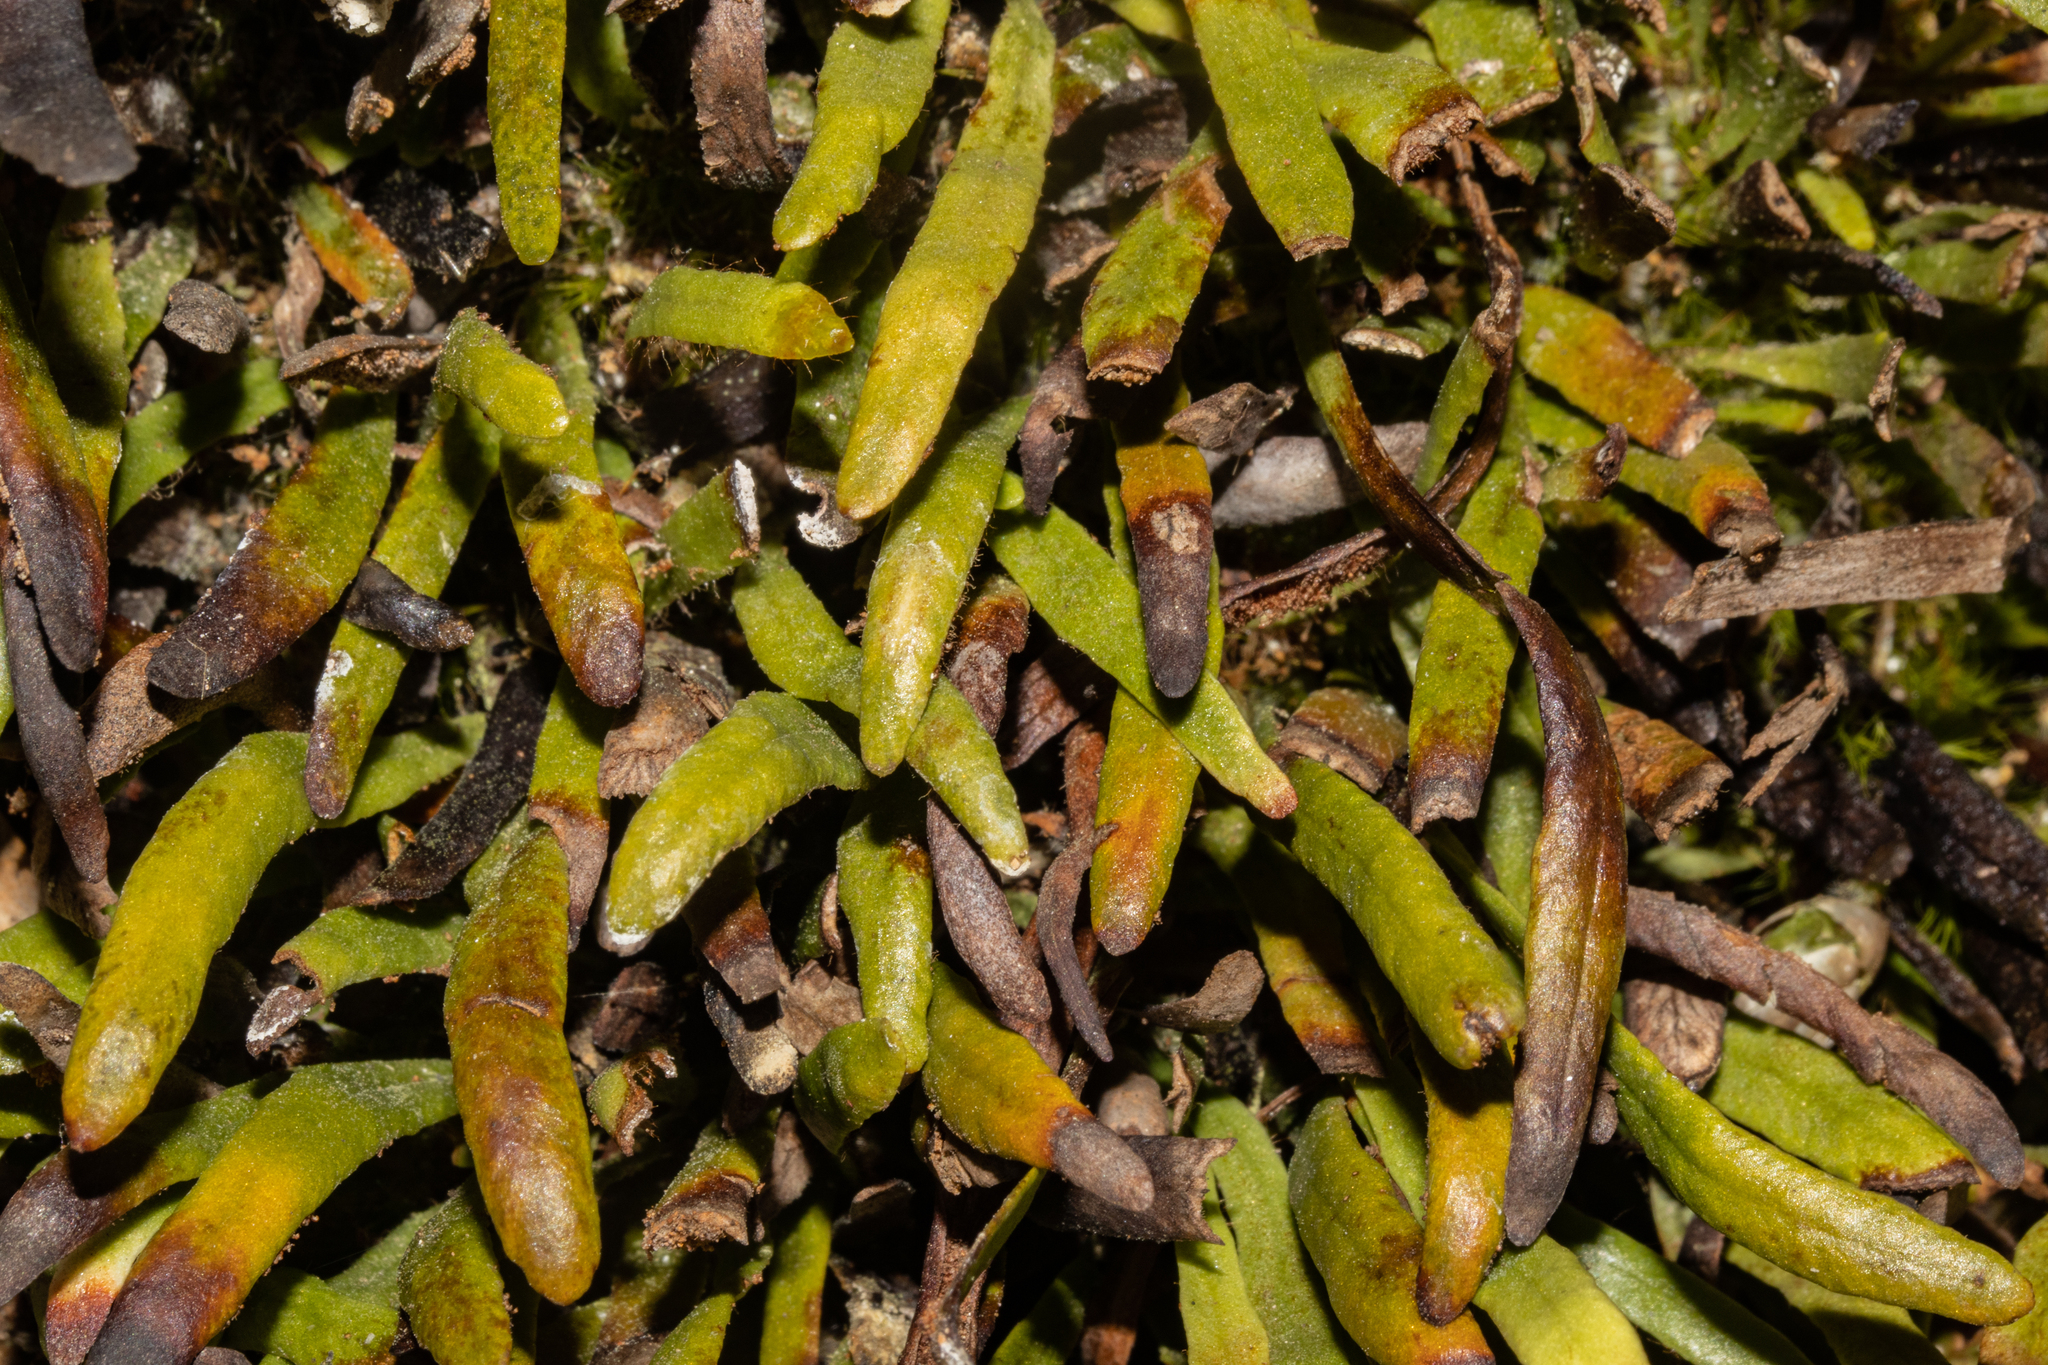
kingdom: Plantae
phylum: Tracheophyta
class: Polypodiopsida
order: Polypodiales
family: Polypodiaceae
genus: Notogrammitis
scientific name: Notogrammitis patagonica
